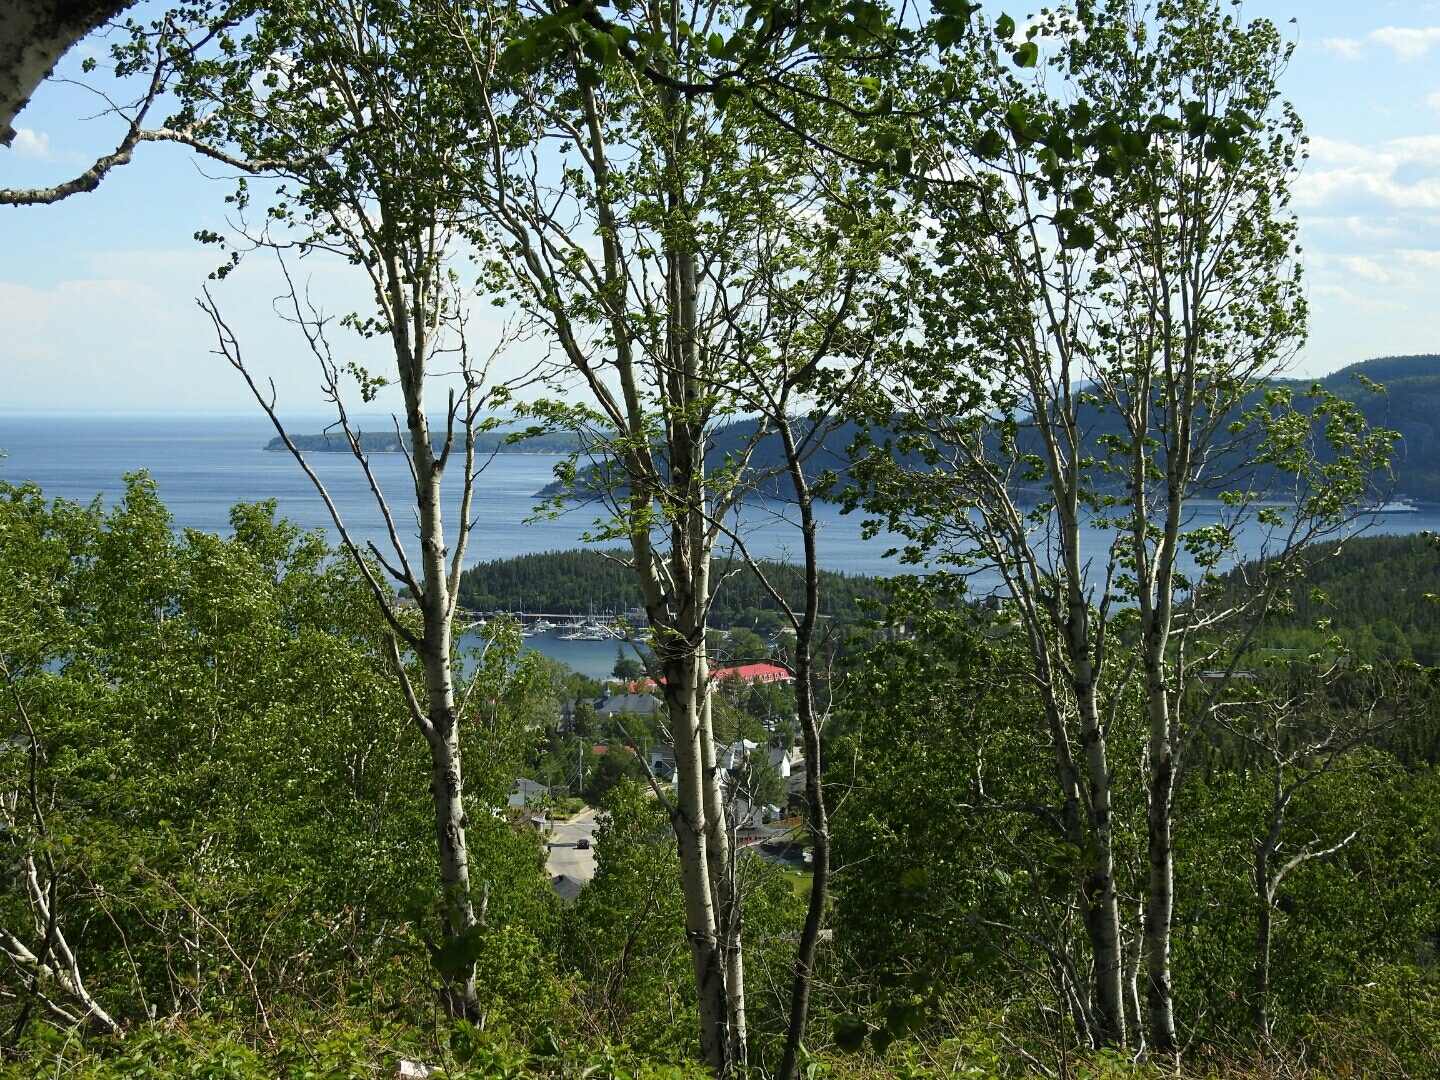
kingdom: Plantae
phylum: Tracheophyta
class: Magnoliopsida
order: Fagales
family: Betulaceae
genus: Betula
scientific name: Betula papyrifera
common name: Paper birch
